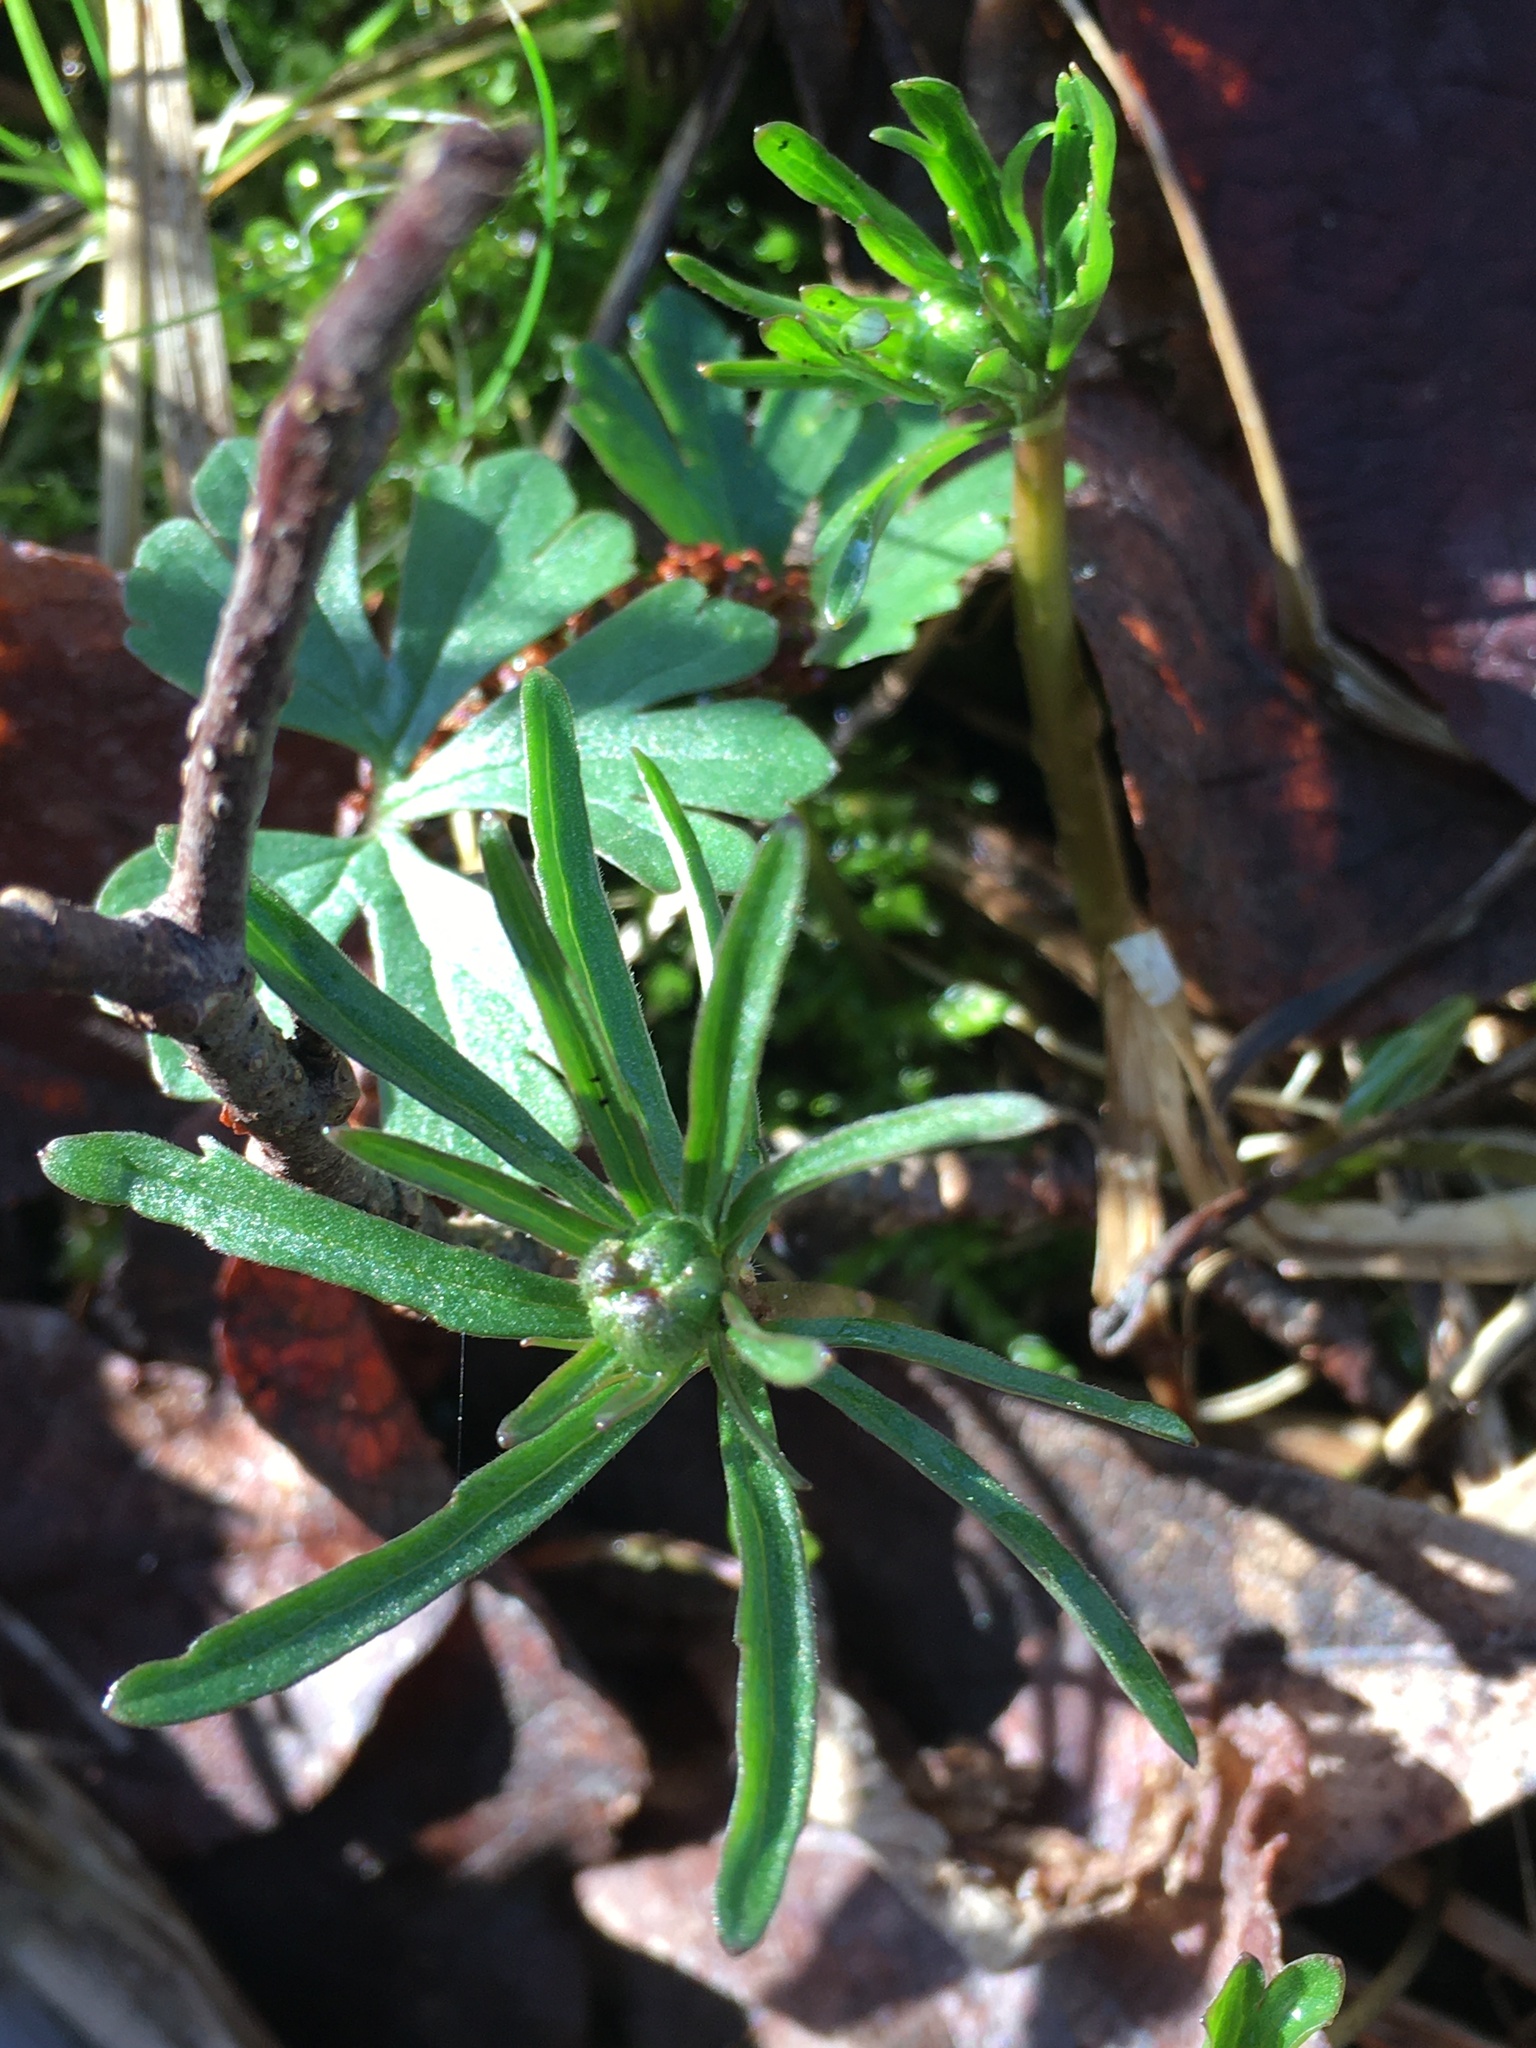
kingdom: Plantae
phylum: Tracheophyta
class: Magnoliopsida
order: Ranunculales
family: Ranunculaceae
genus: Ranunculus
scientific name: Ranunculus auricomus
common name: Goldilocks buttercup
